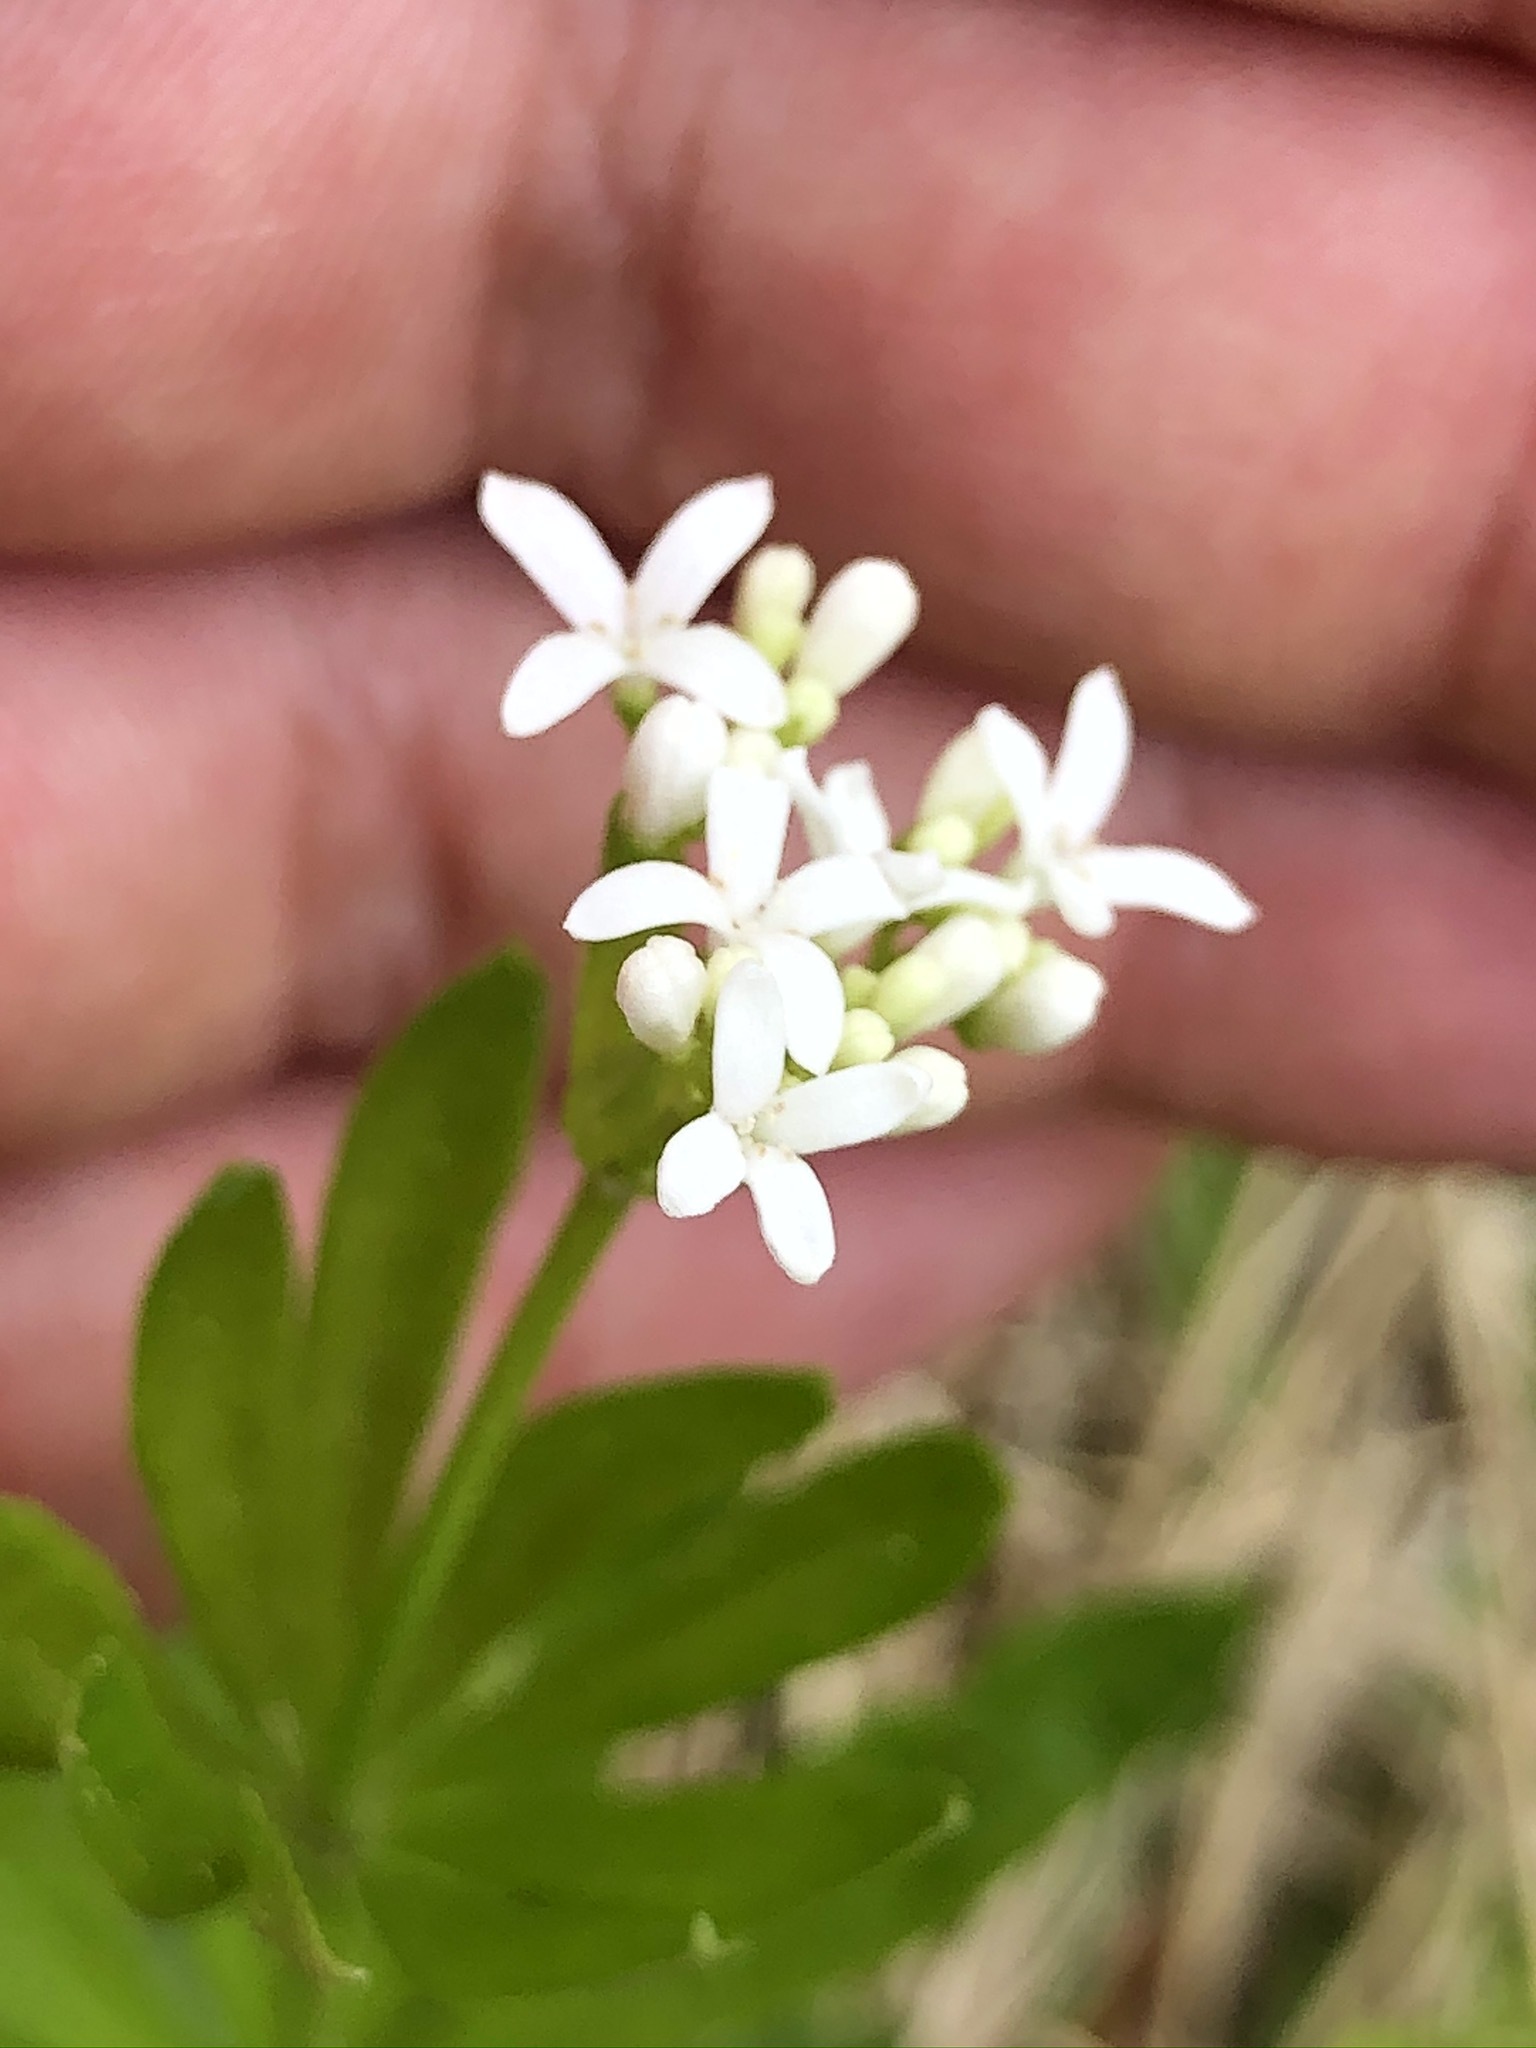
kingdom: Plantae
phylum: Tracheophyta
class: Magnoliopsida
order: Gentianales
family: Rubiaceae
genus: Galium
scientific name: Galium odoratum
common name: Sweet woodruff
